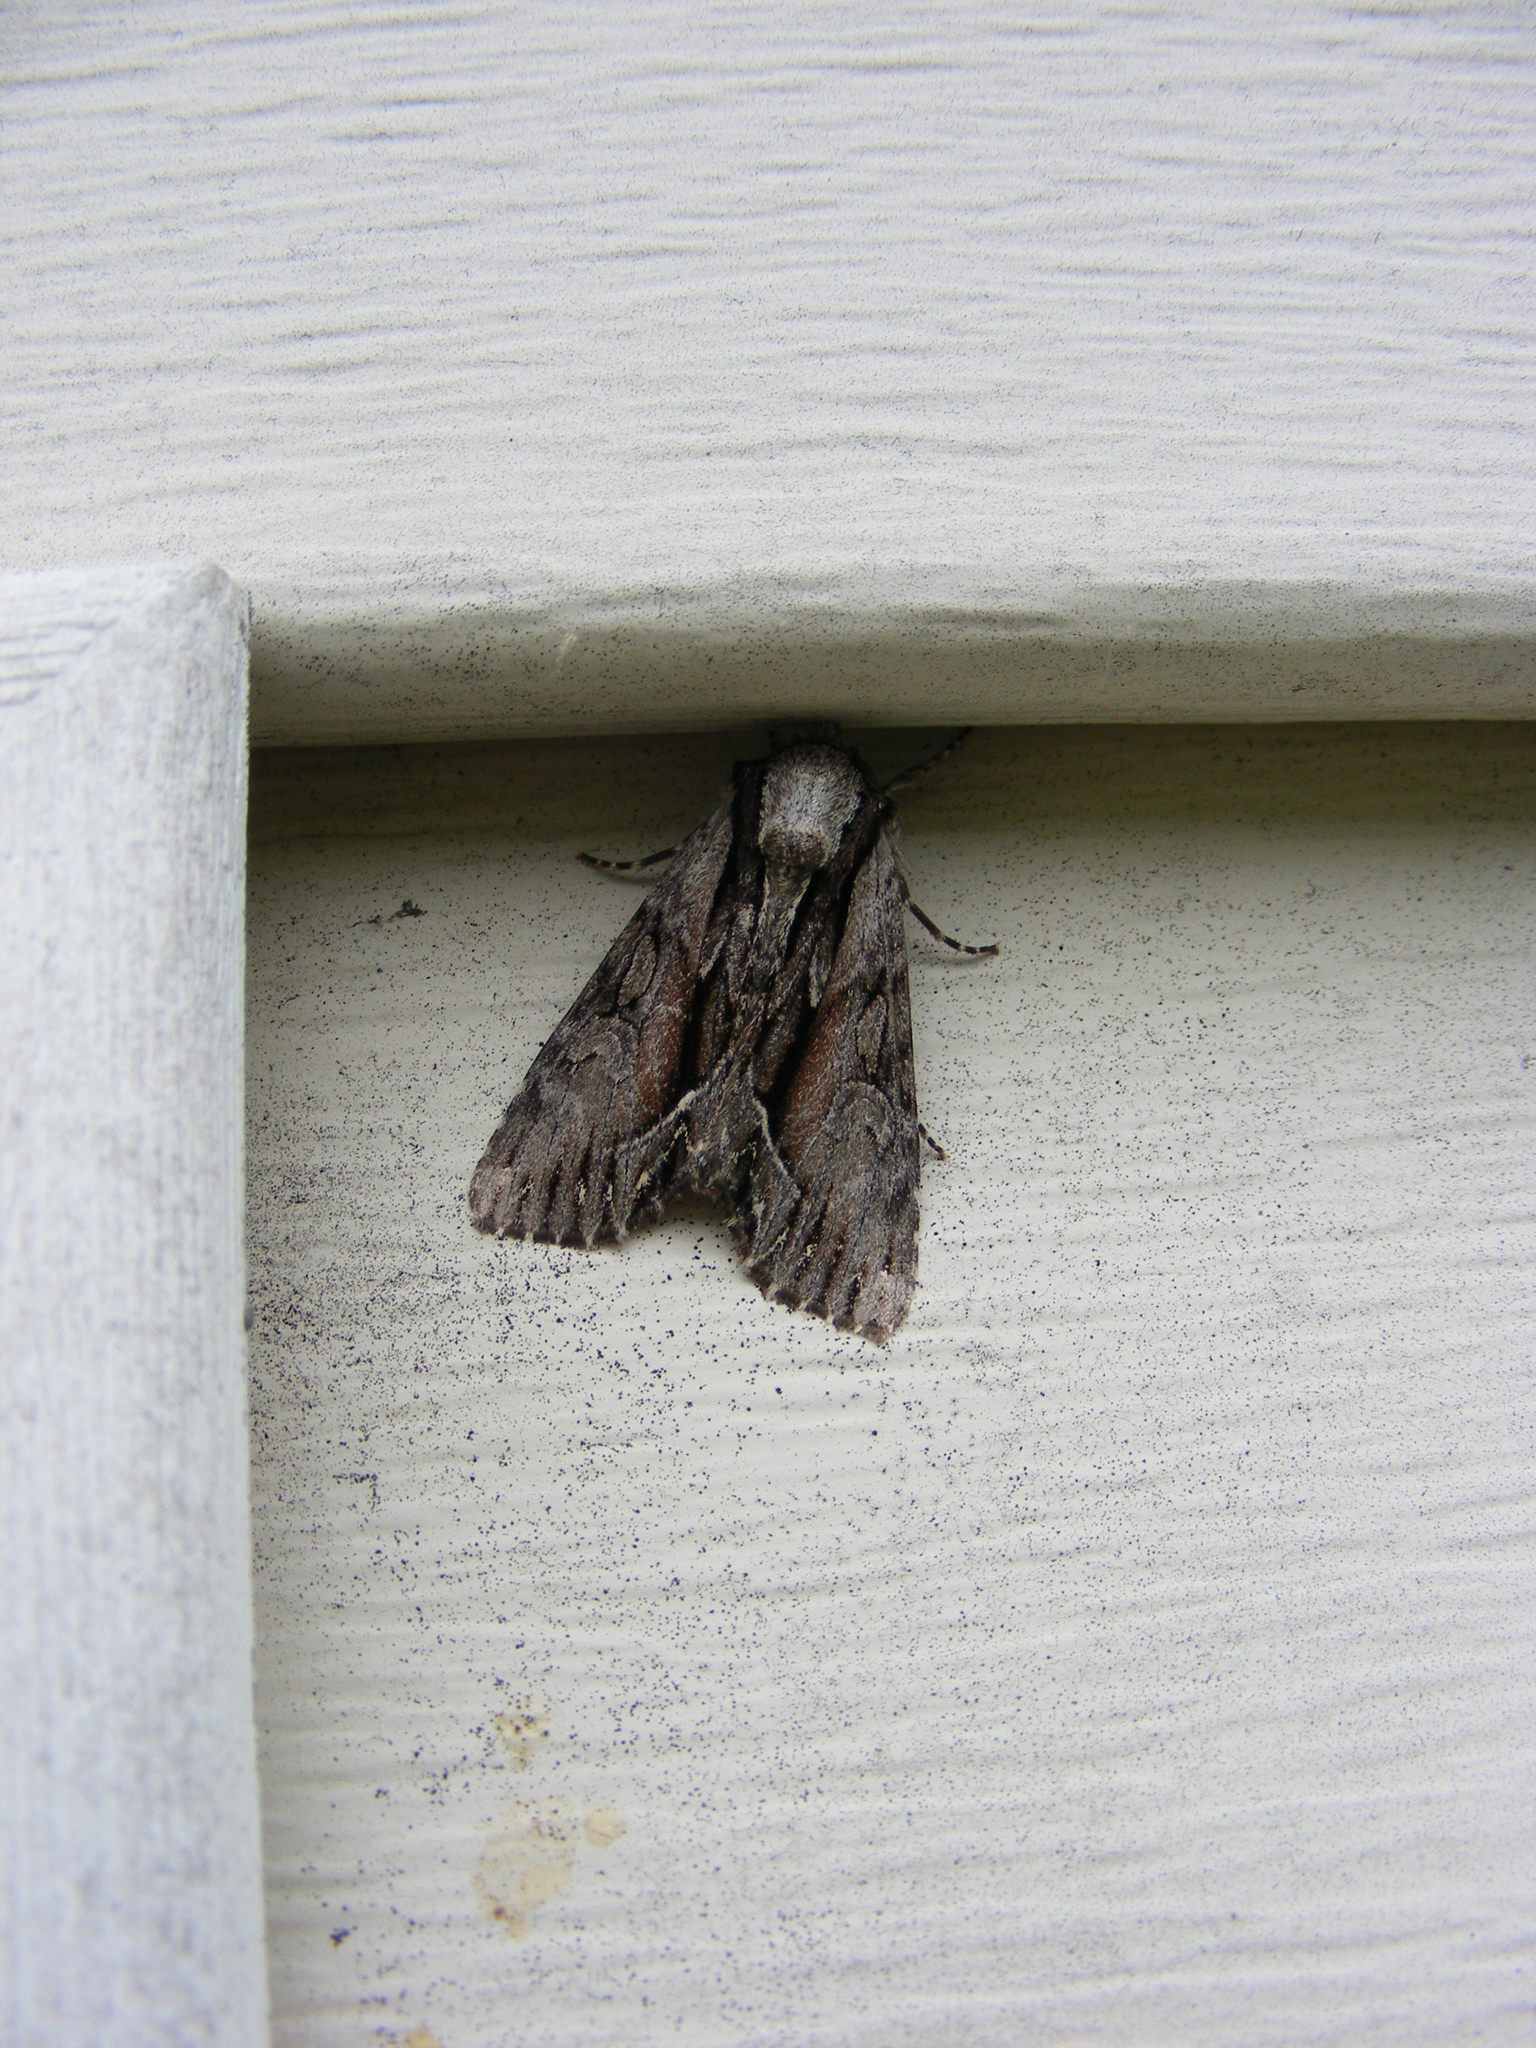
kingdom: Animalia
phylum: Arthropoda
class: Insecta
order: Lepidoptera
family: Noctuidae
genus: Hyppa
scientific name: Hyppa xylinoides
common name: Common hyppa moth
